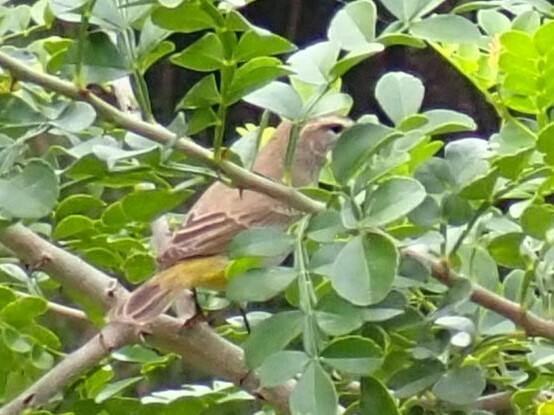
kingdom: Animalia
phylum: Chordata
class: Aves
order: Passeriformes
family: Parulidae
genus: Setophaga
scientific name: Setophaga palmarum
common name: Palm warbler
